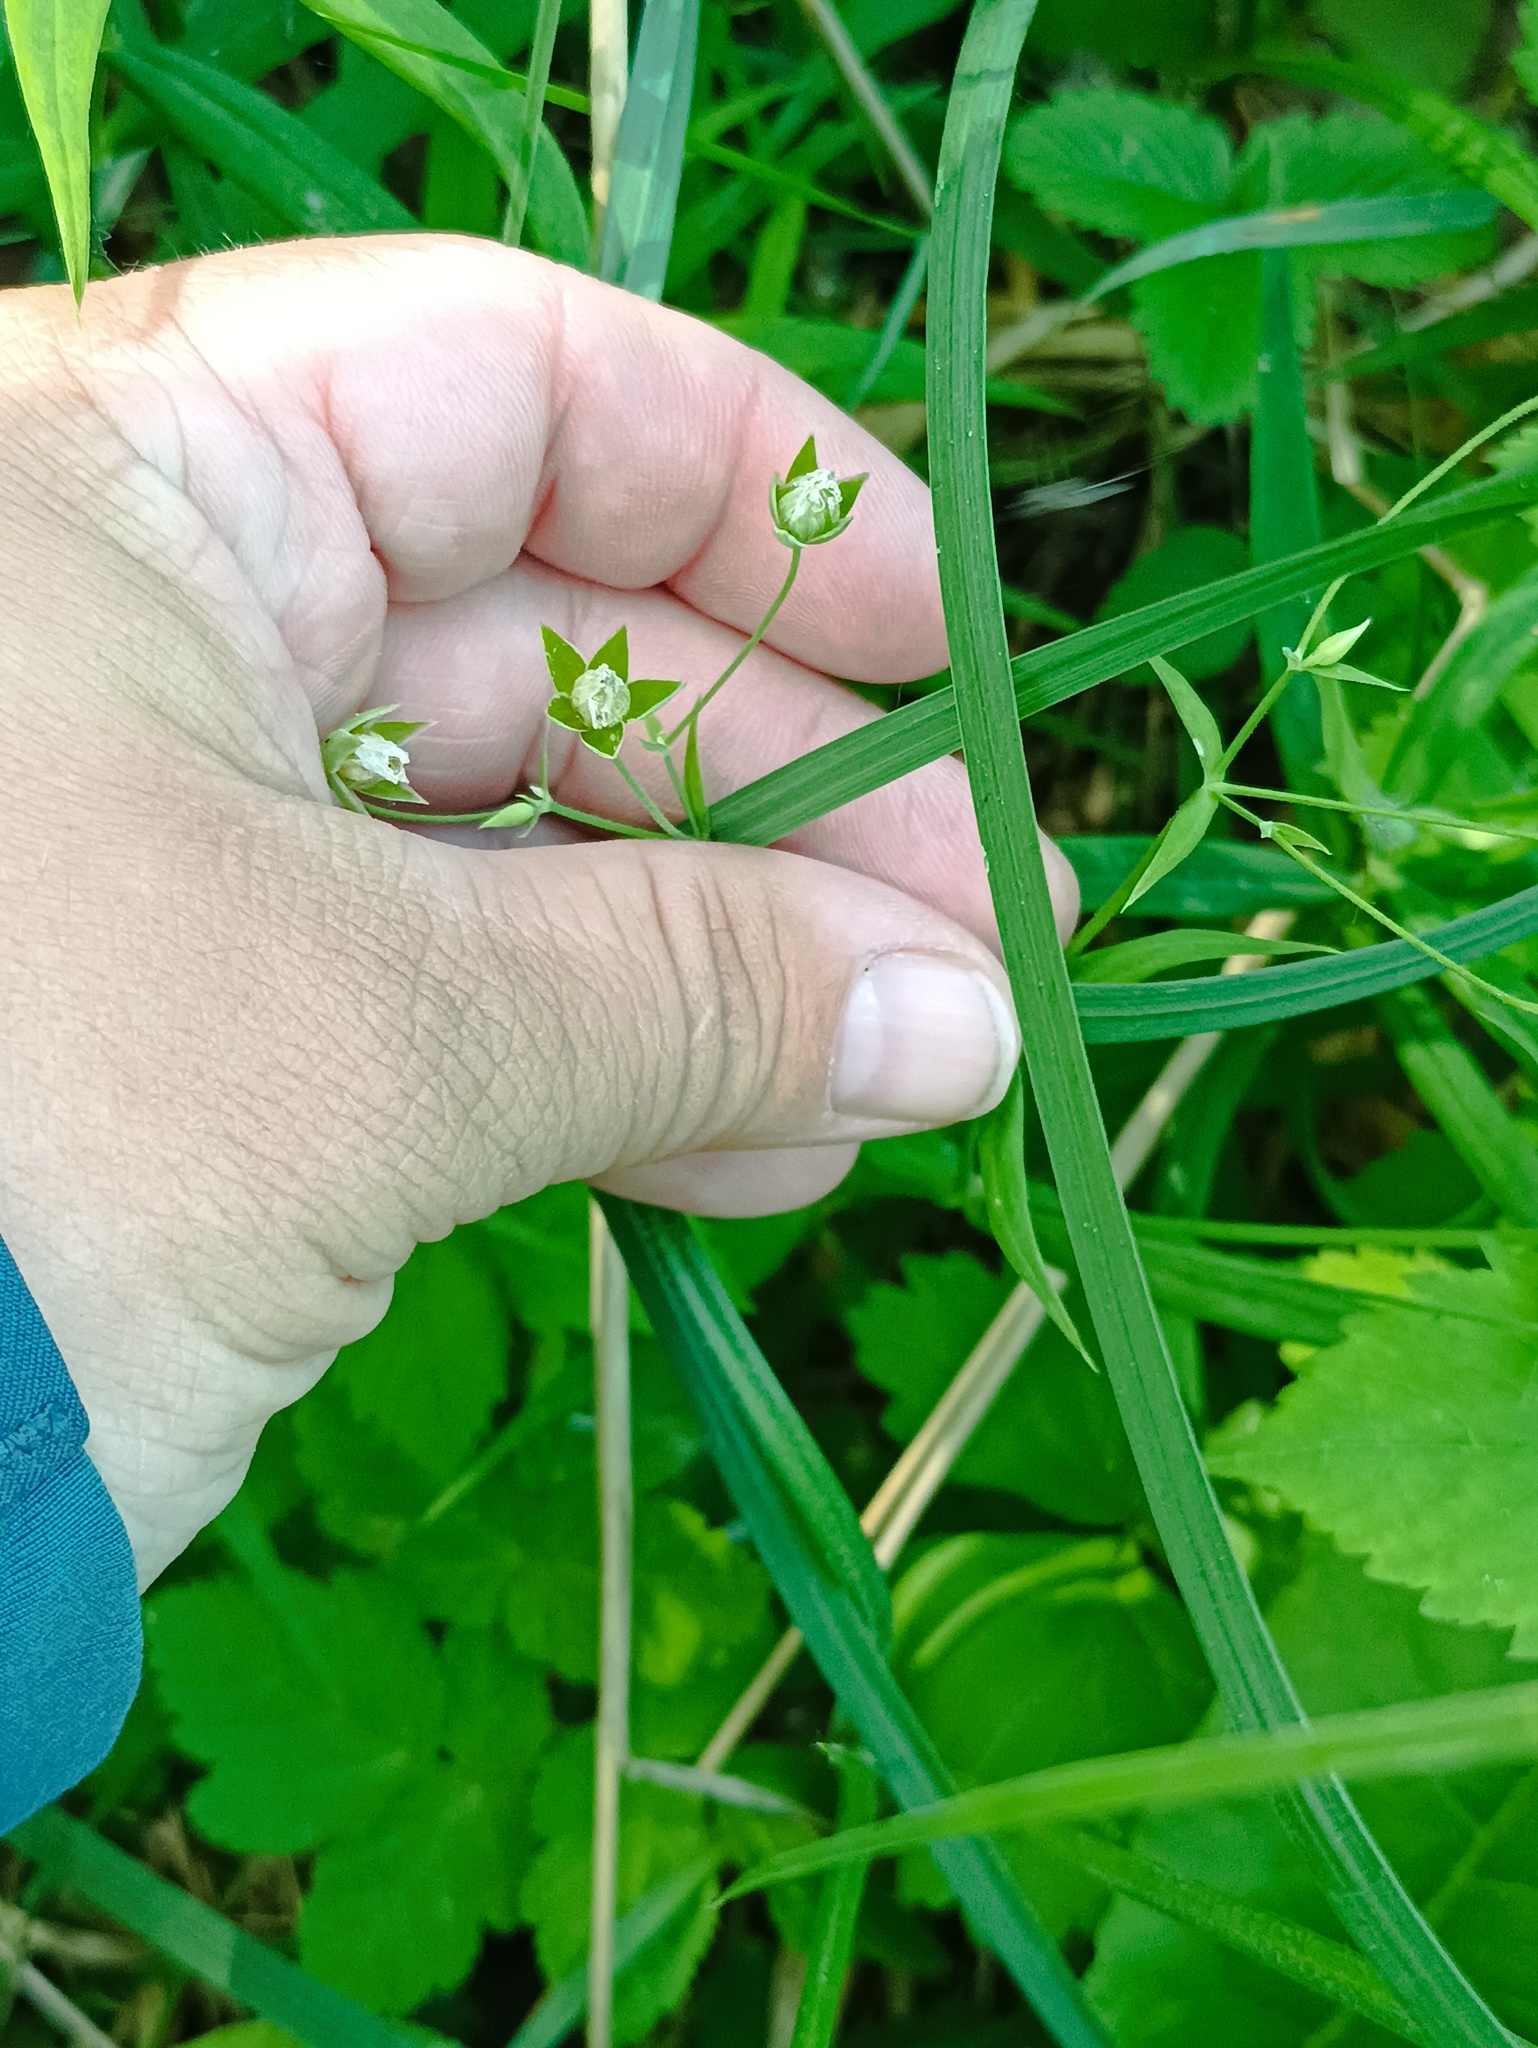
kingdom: Plantae
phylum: Tracheophyta
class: Magnoliopsida
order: Caryophyllales
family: Caryophyllaceae
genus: Rabelera
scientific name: Rabelera holostea
